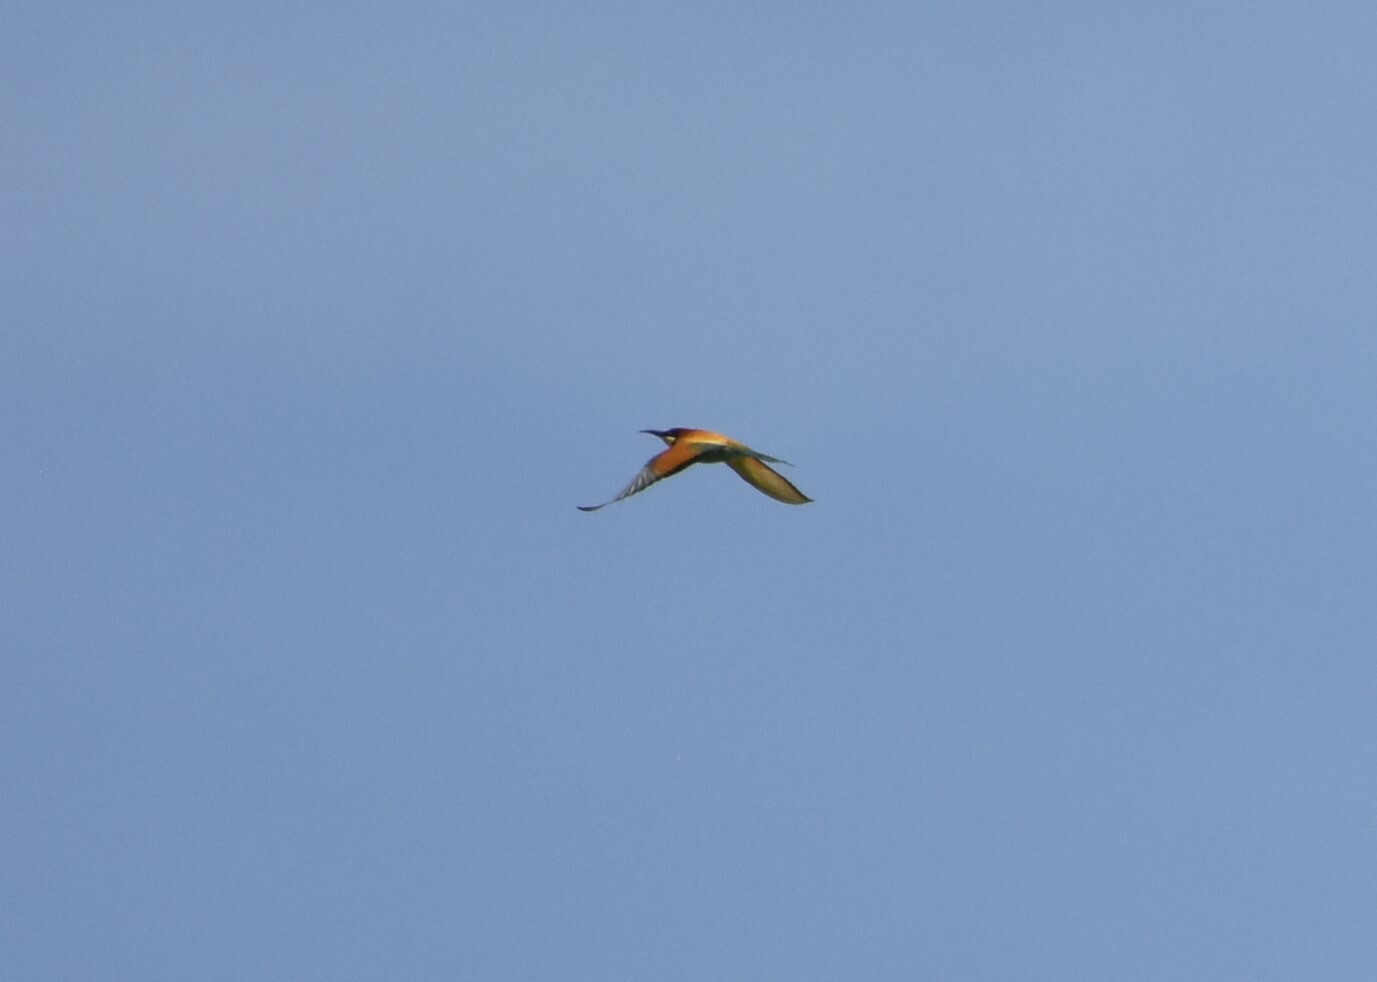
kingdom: Animalia
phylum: Chordata
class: Aves
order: Coraciiformes
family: Meropidae
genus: Merops
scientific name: Merops apiaster
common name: European bee-eater
